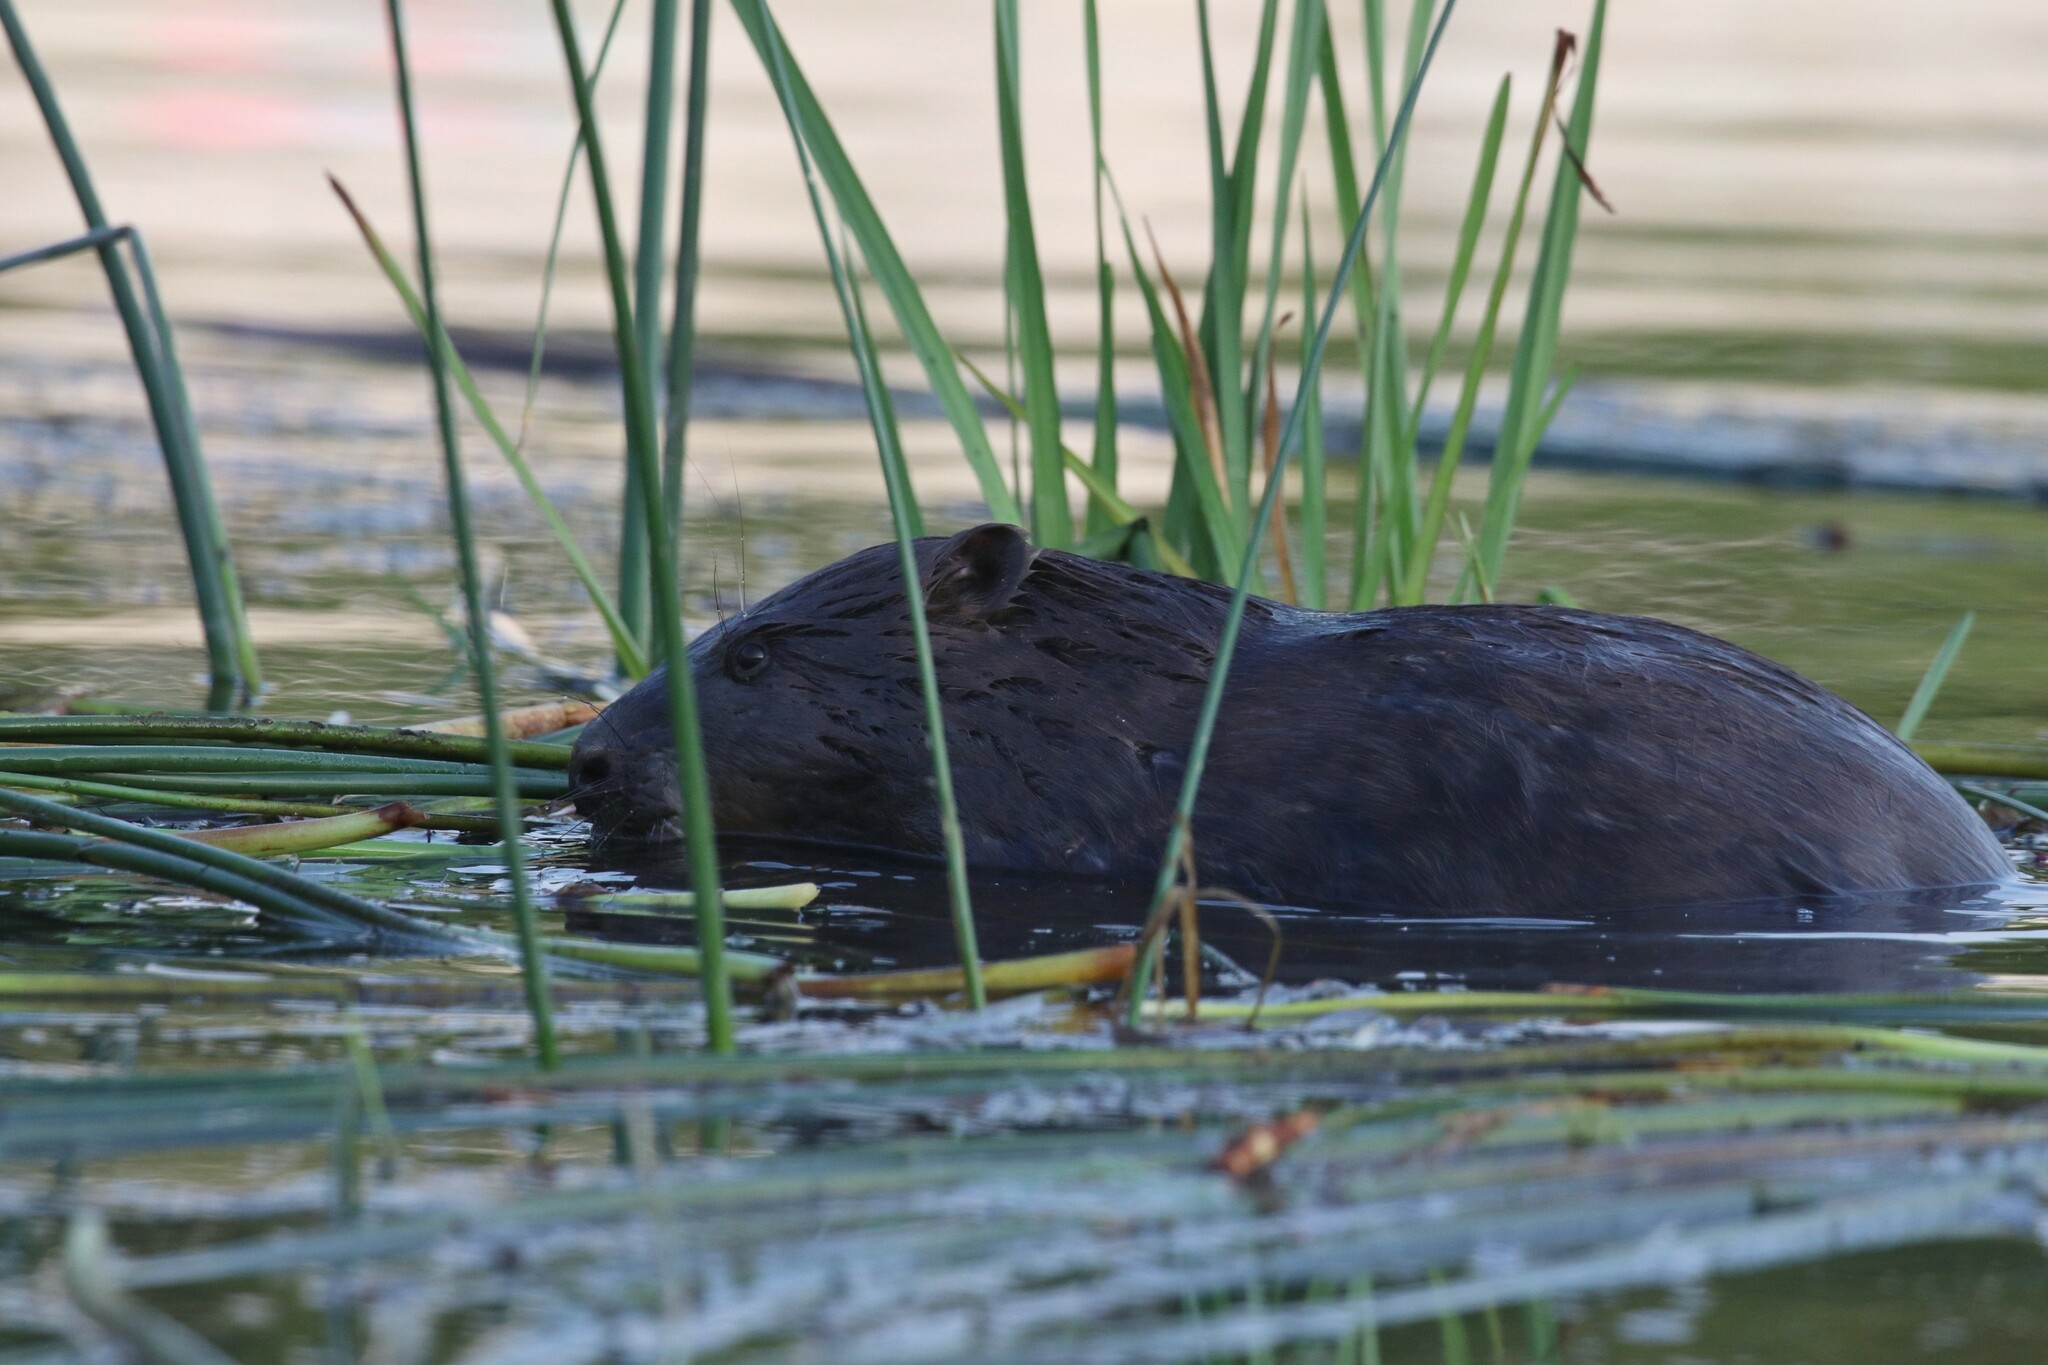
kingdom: Animalia
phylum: Chordata
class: Mammalia
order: Rodentia
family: Castoridae
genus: Castor
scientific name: Castor fiber
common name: Eurasian beaver
